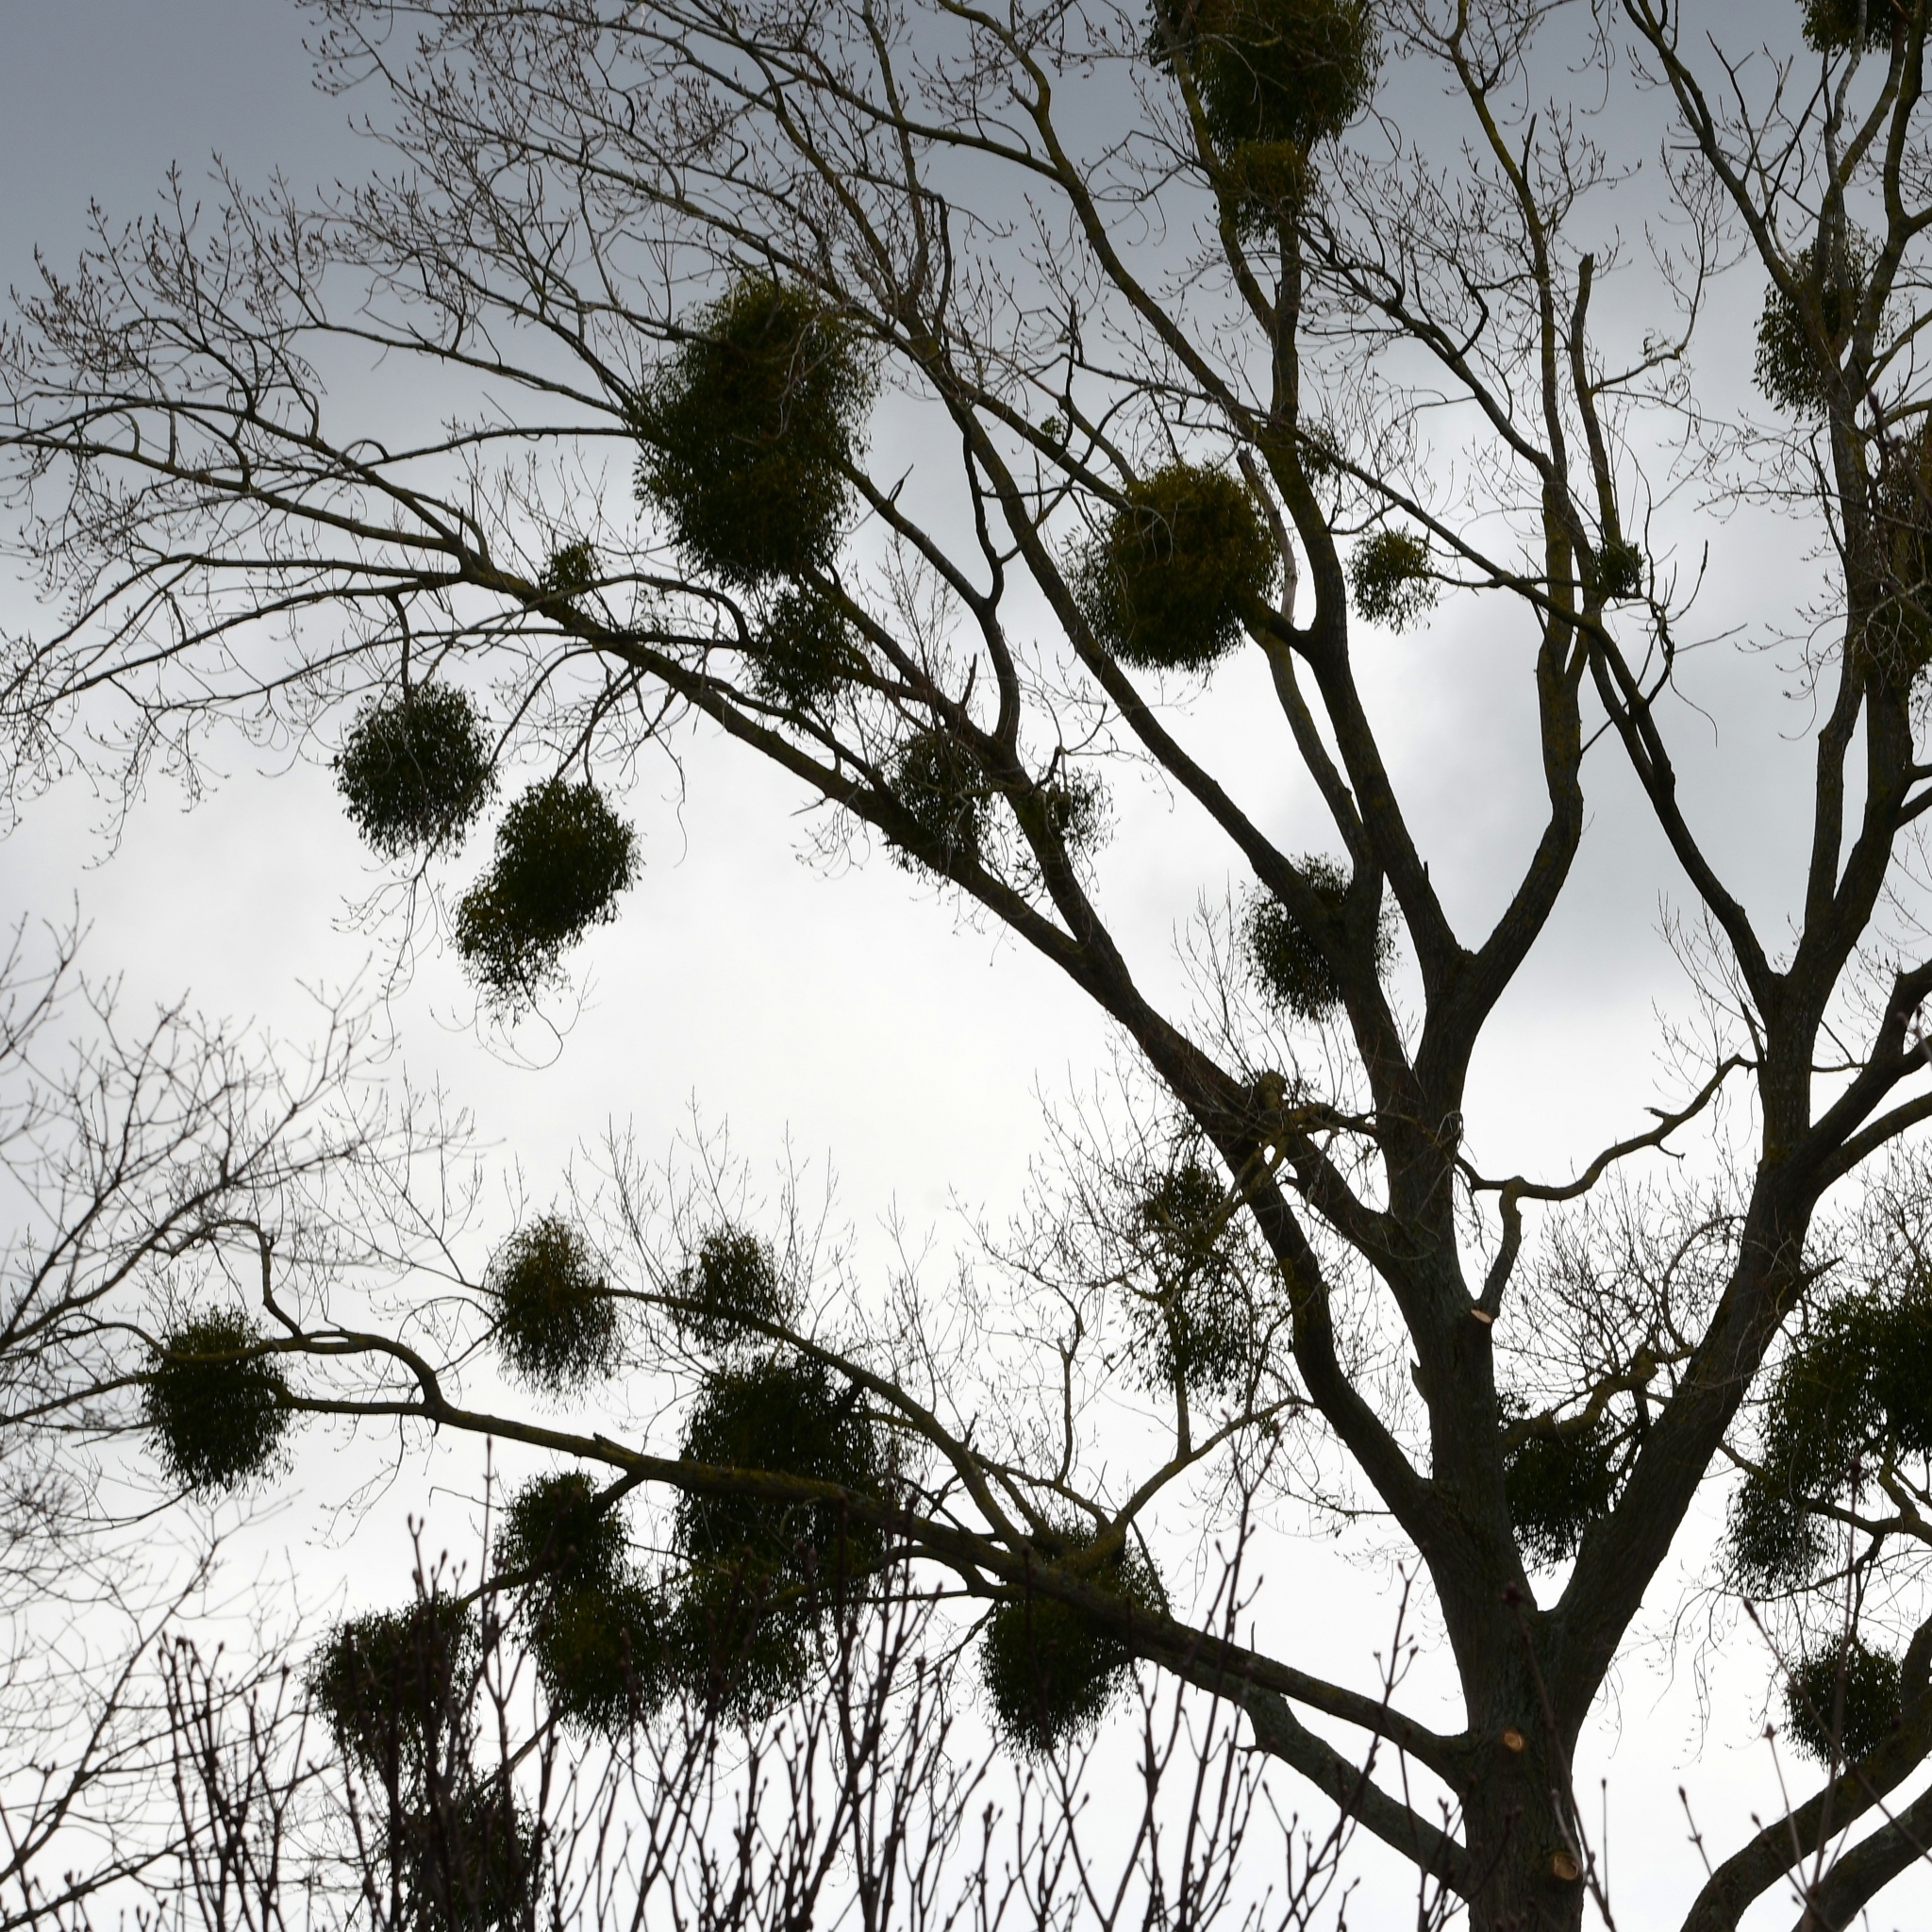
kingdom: Plantae
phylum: Tracheophyta
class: Magnoliopsida
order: Santalales
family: Viscaceae
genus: Viscum
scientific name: Viscum album
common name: Mistletoe
